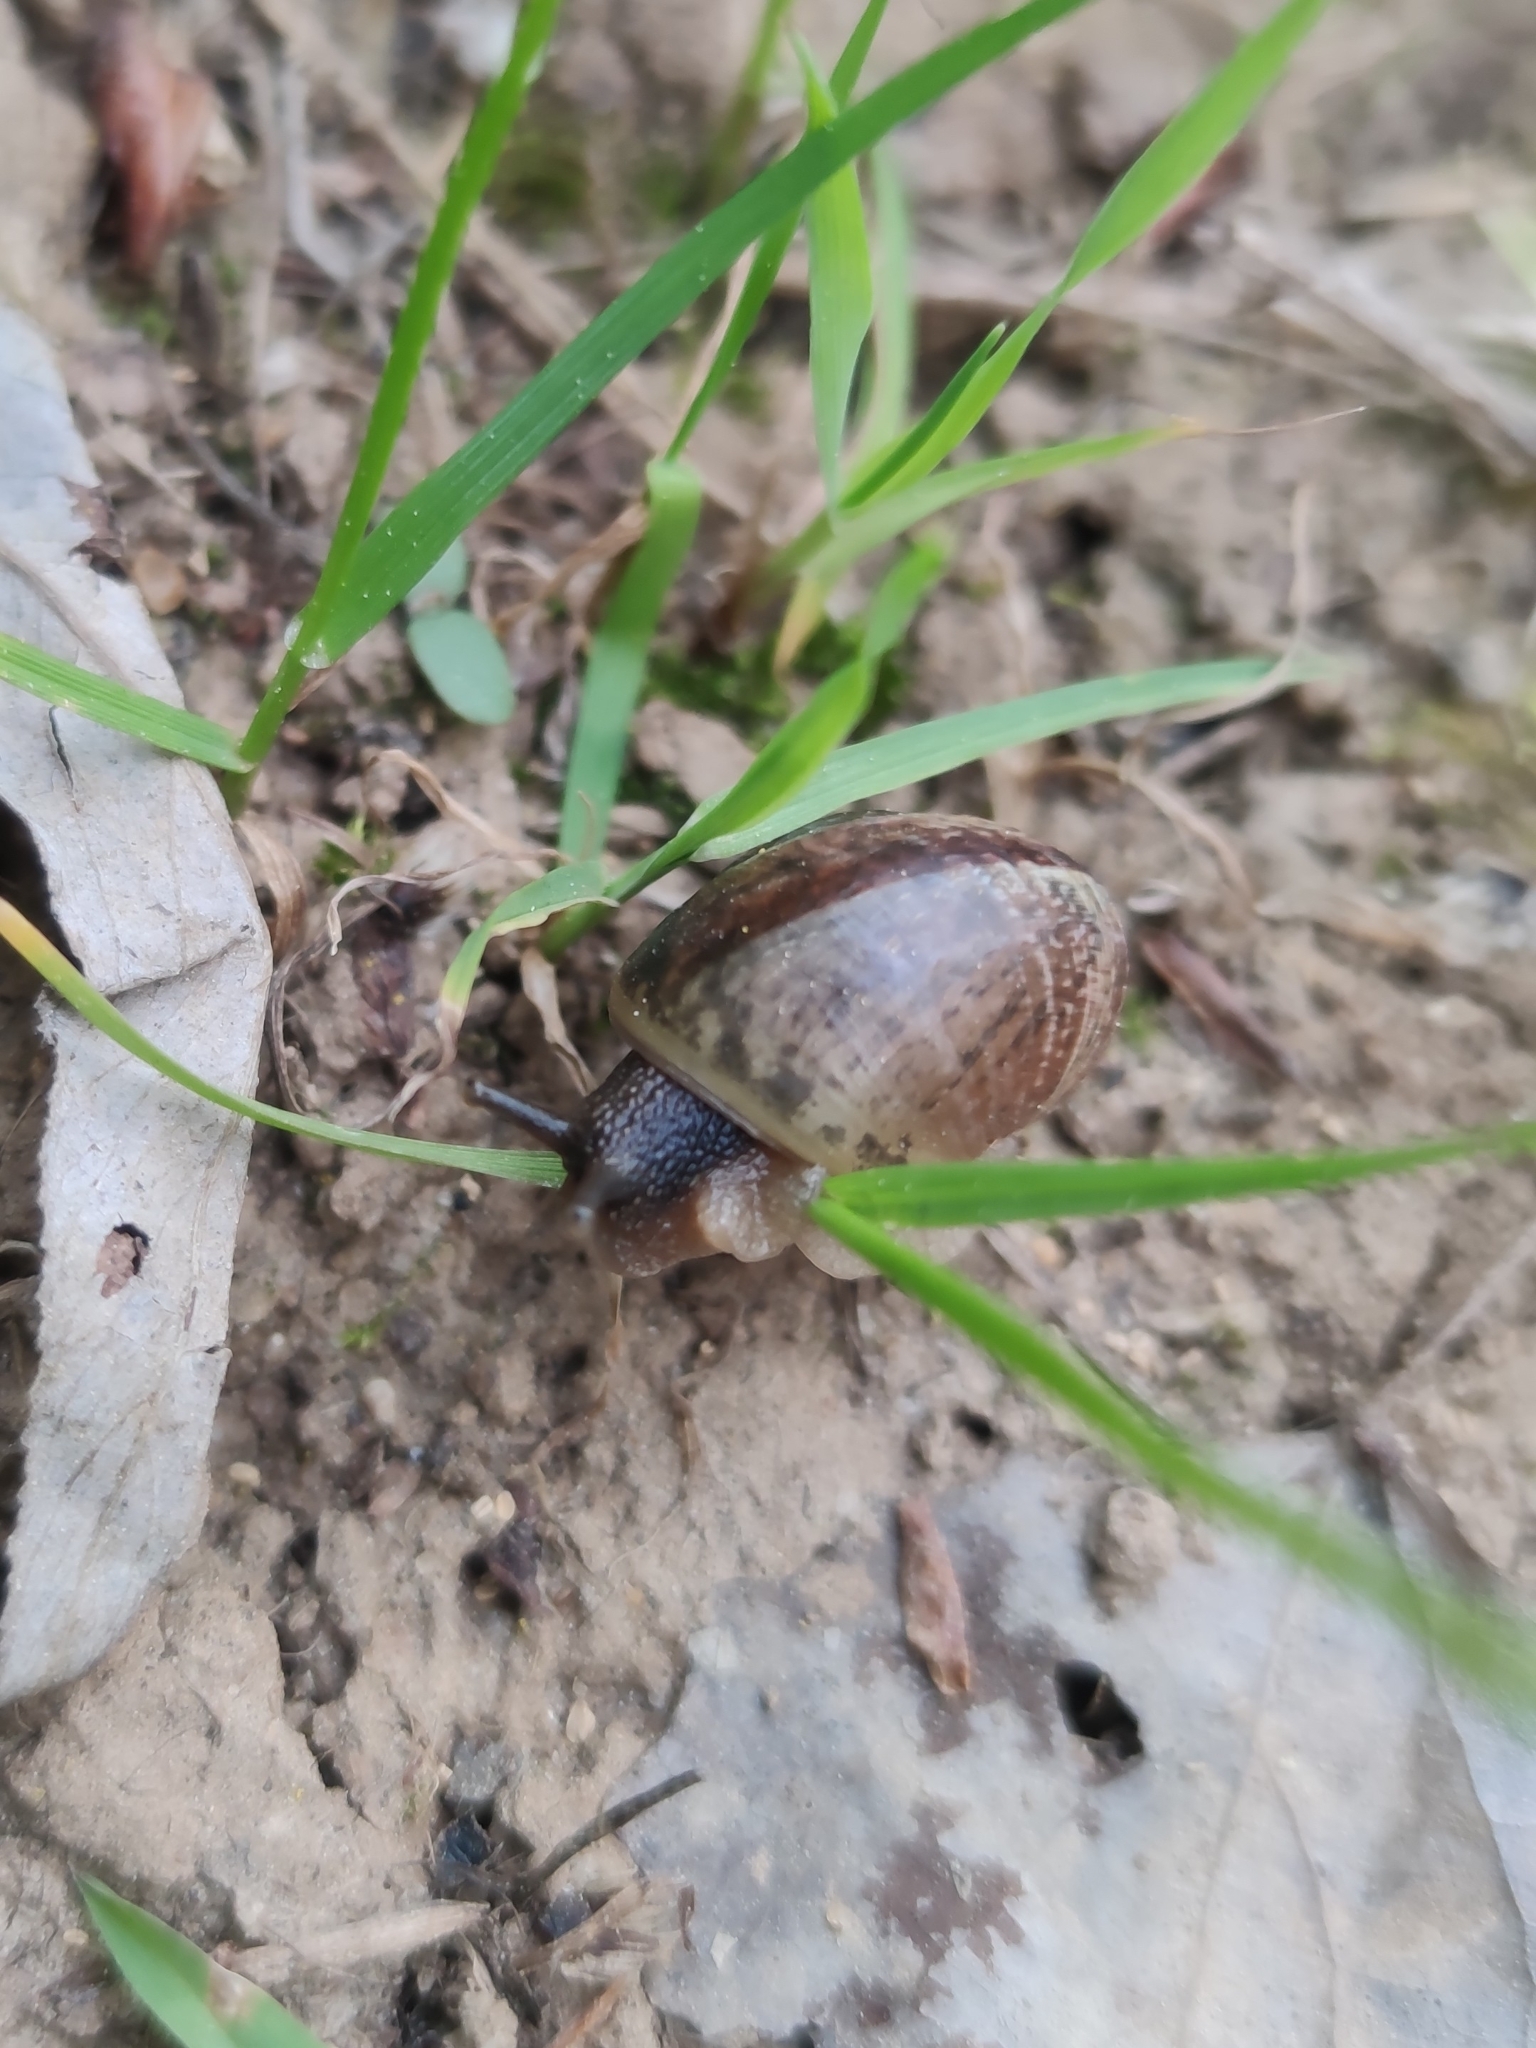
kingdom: Animalia
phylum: Mollusca
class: Gastropoda
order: Stylommatophora
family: Helicidae
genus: Arianta
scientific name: Arianta arbustorum
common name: Copse snail
